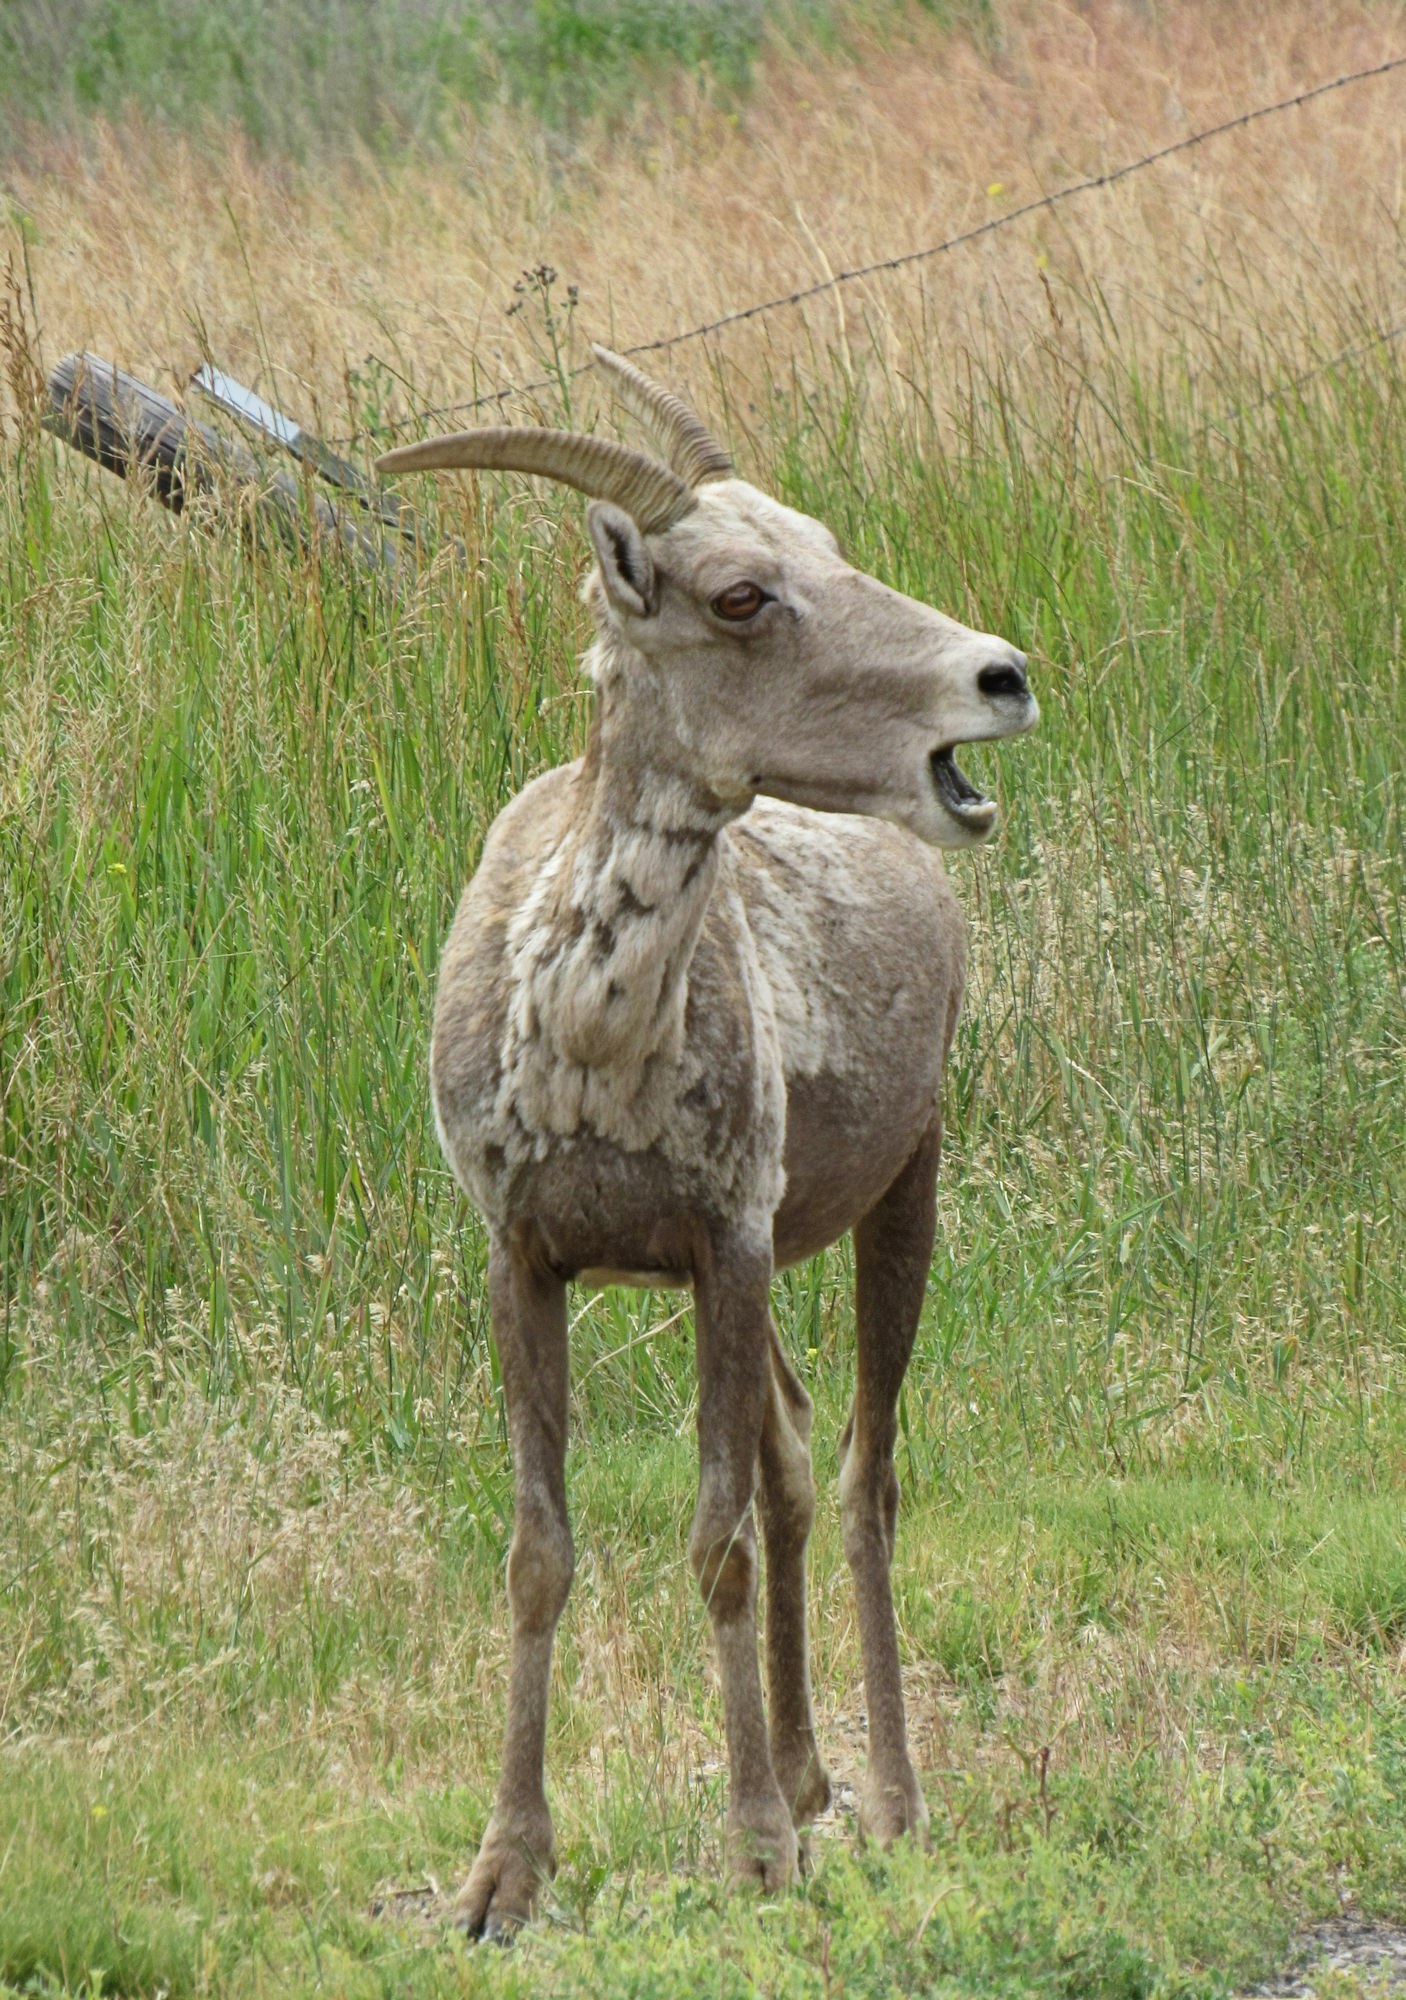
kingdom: Animalia
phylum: Chordata
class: Mammalia
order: Artiodactyla
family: Bovidae
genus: Ovis
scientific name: Ovis canadensis
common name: Bighorn sheep
